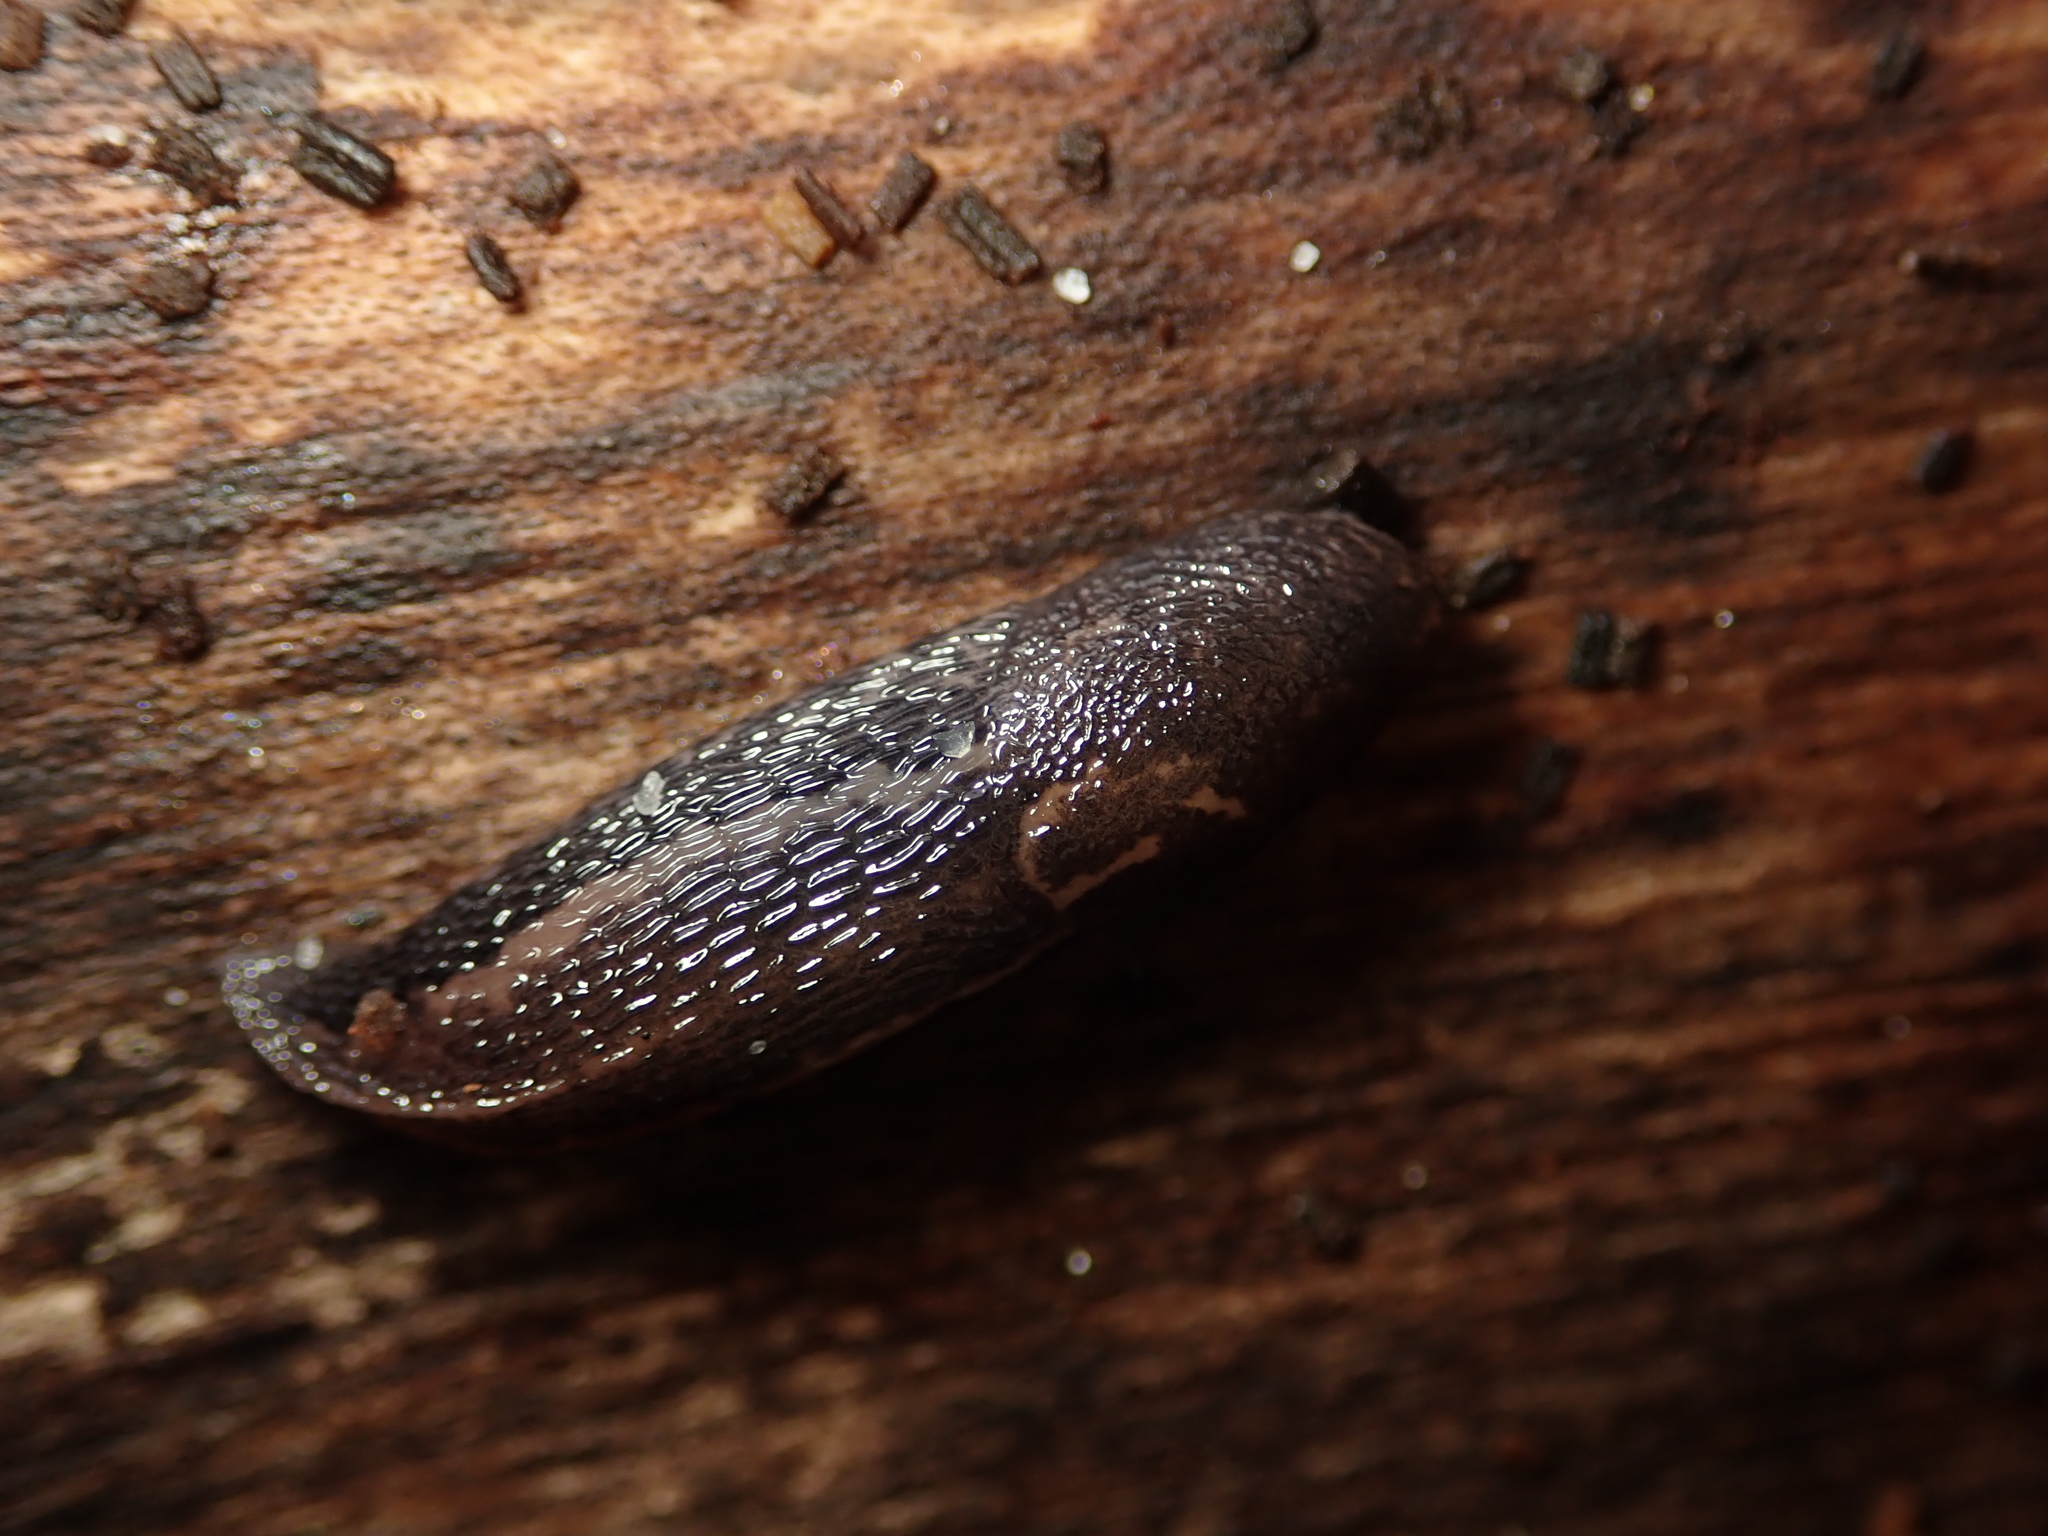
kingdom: Animalia
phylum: Mollusca
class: Gastropoda
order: Stylommatophora
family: Limacidae
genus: Limax
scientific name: Limax maximus
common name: Great grey slug
